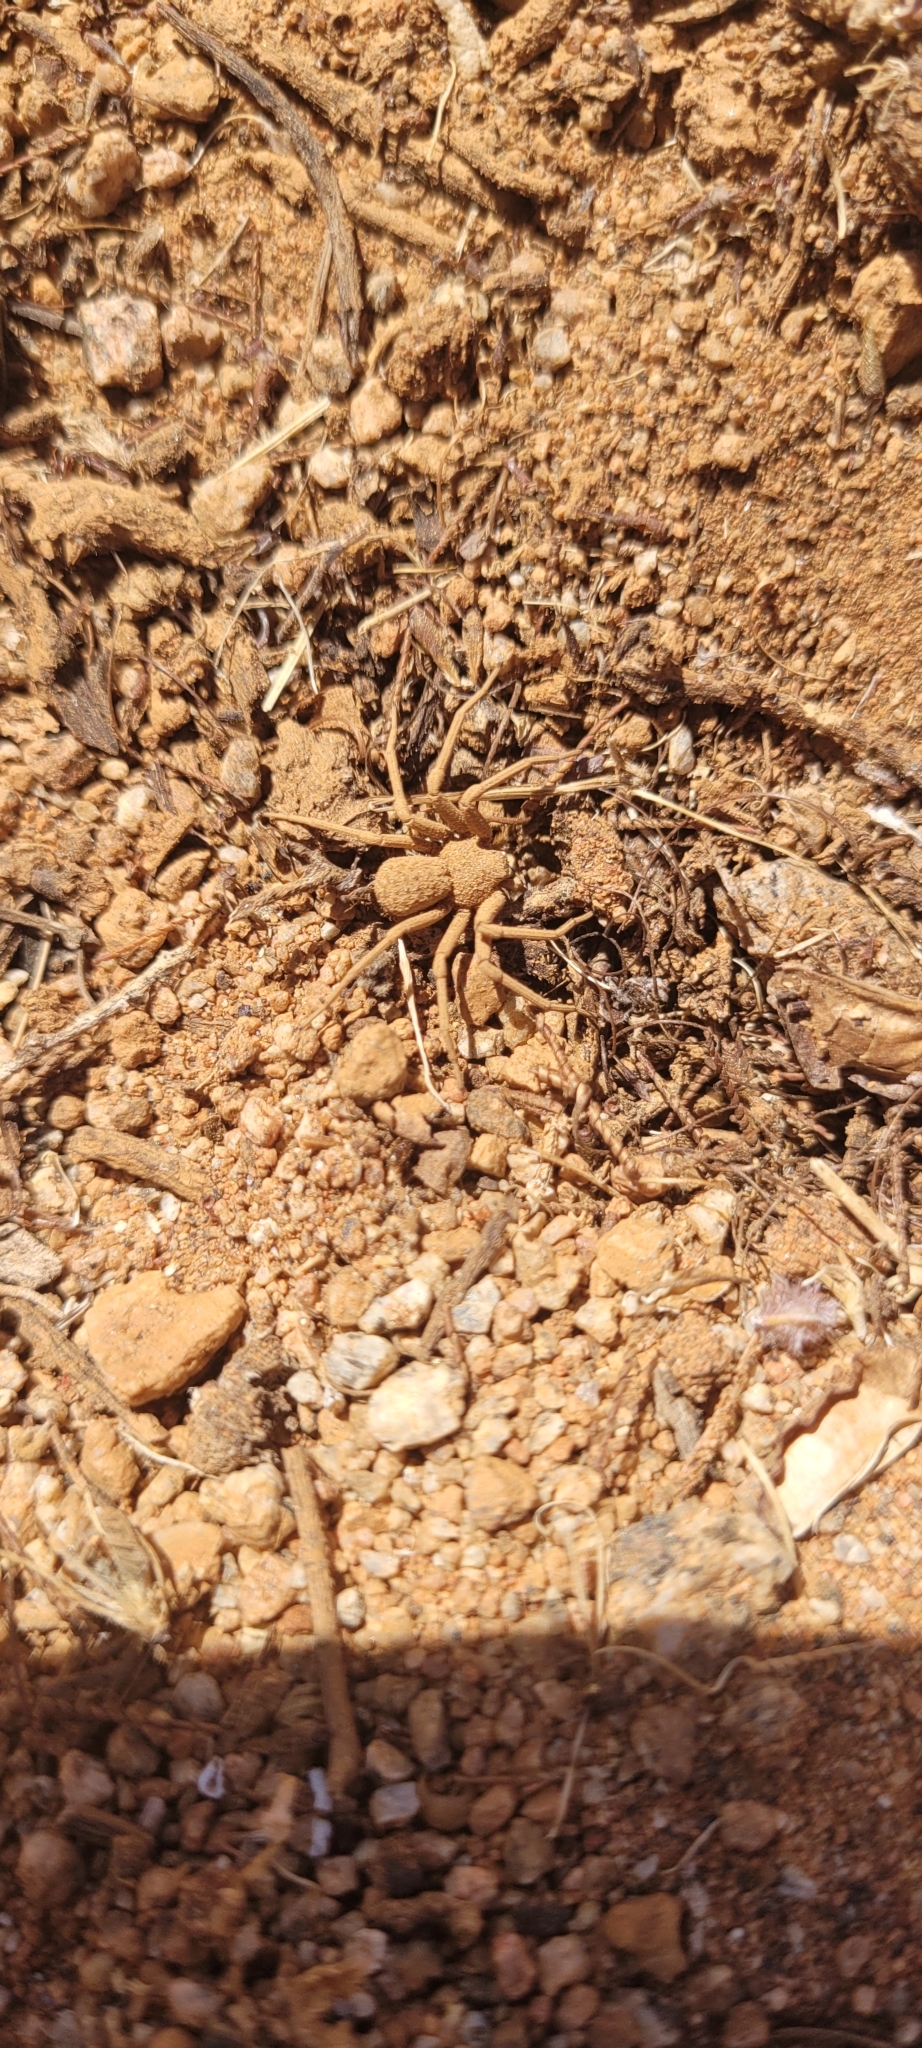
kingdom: Animalia
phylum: Arthropoda
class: Arachnida
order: Araneae
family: Sicariidae
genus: Sicarius
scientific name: Sicarius thomisoides
